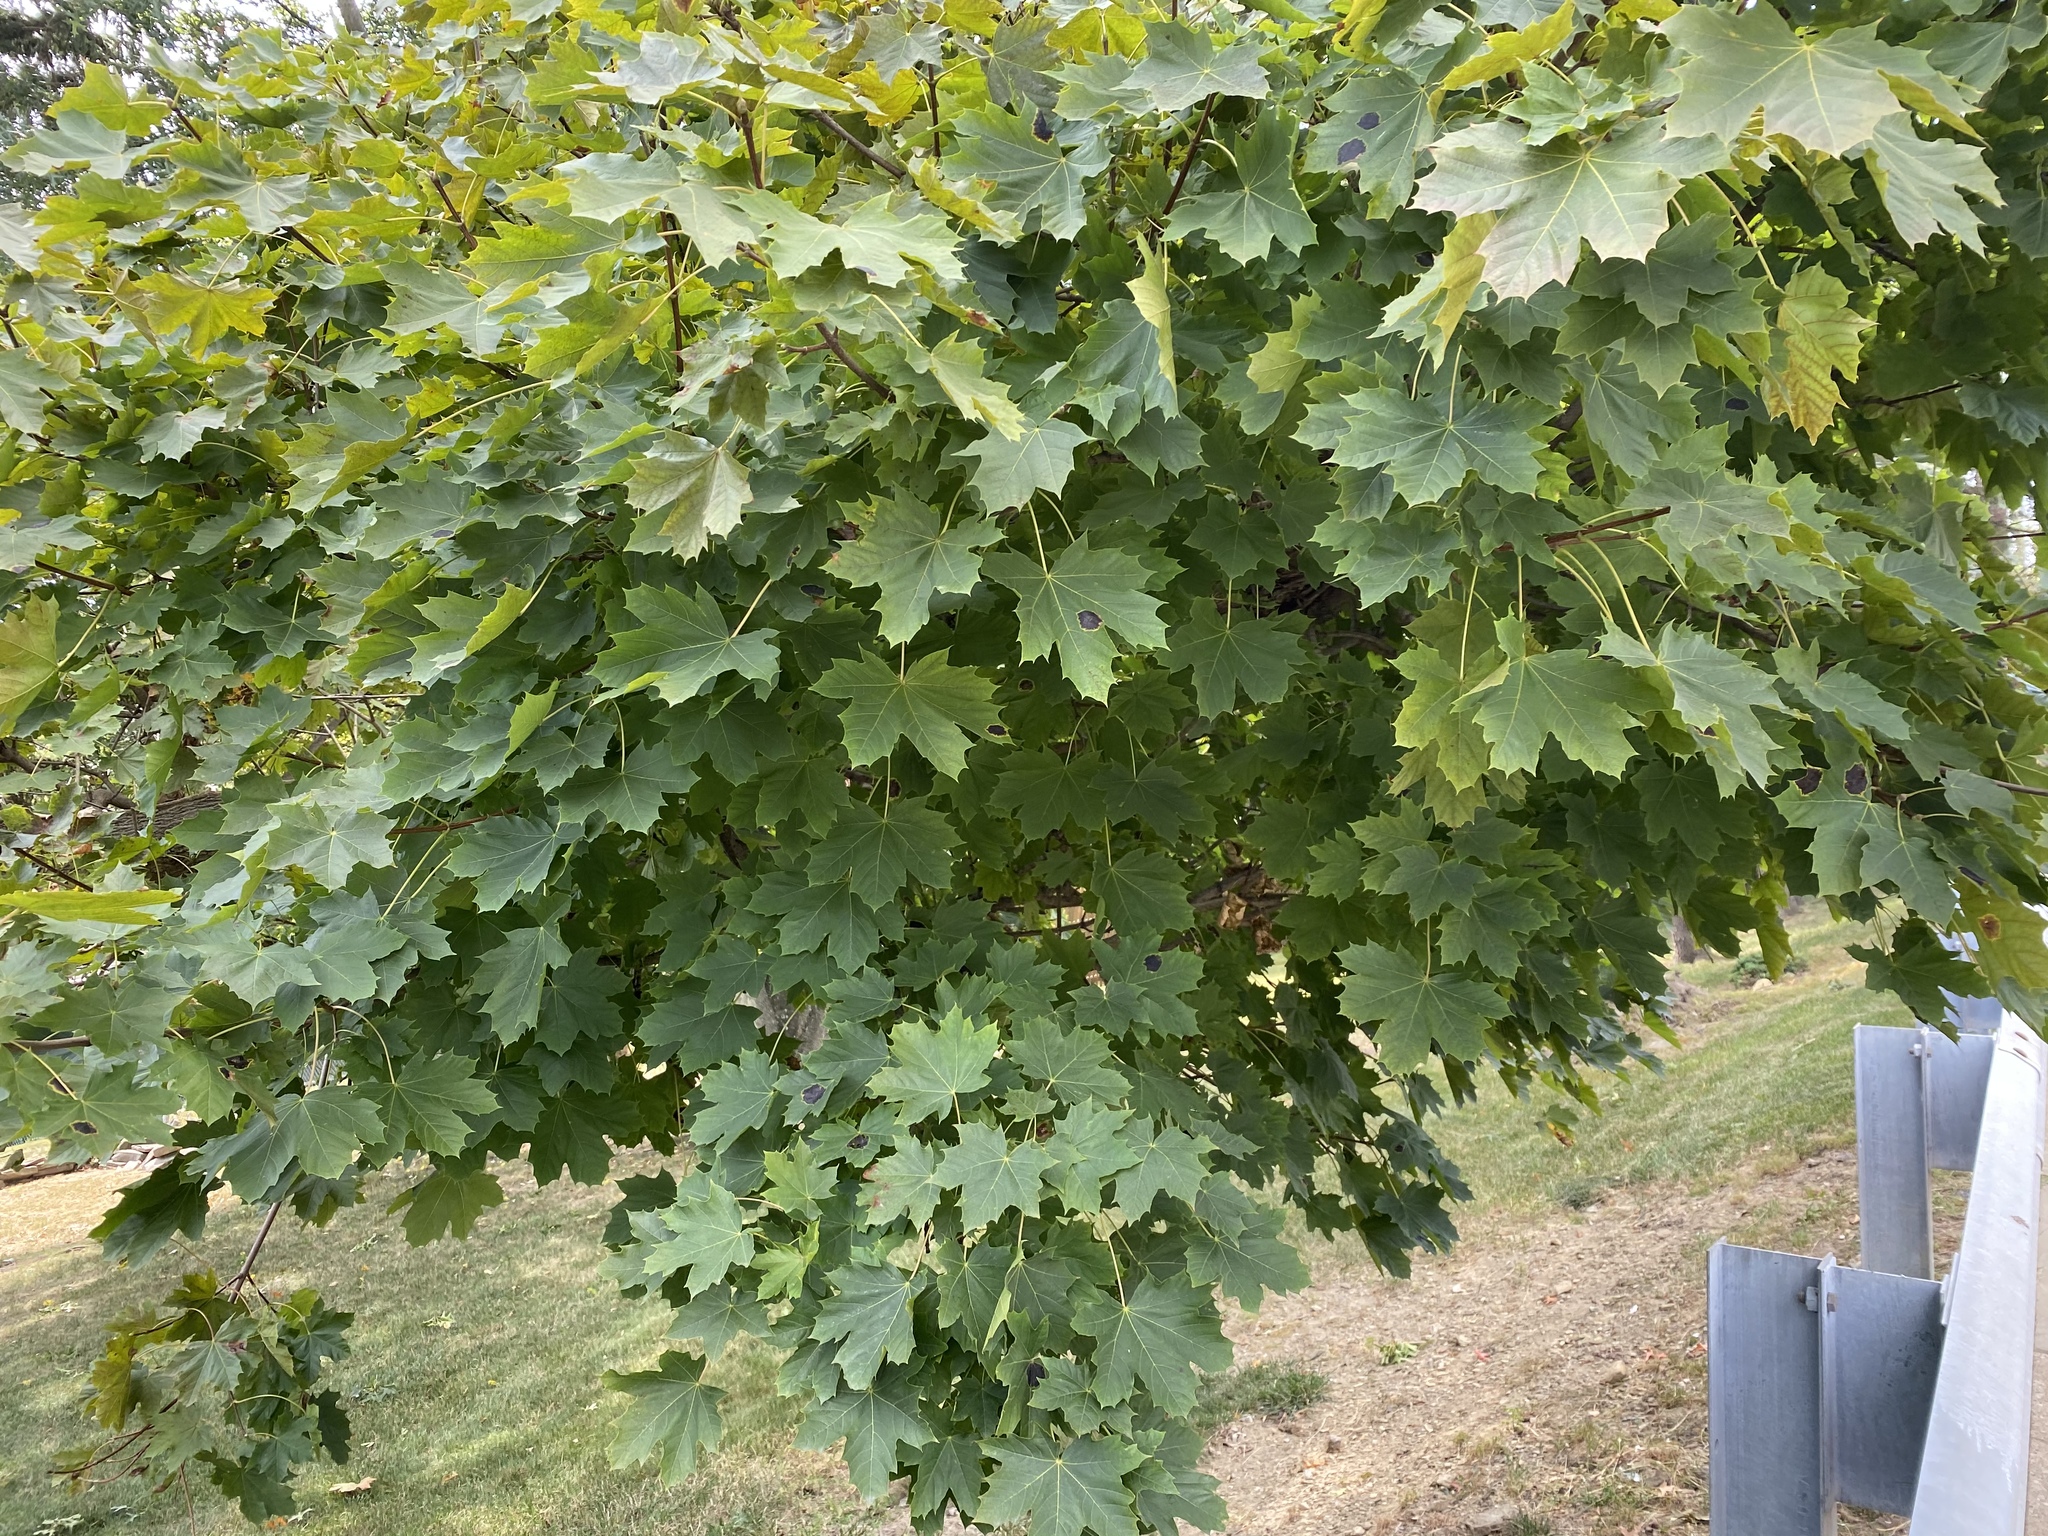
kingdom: Plantae
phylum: Tracheophyta
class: Magnoliopsida
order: Sapindales
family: Sapindaceae
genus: Acer
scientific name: Acer platanoides
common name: Norway maple
